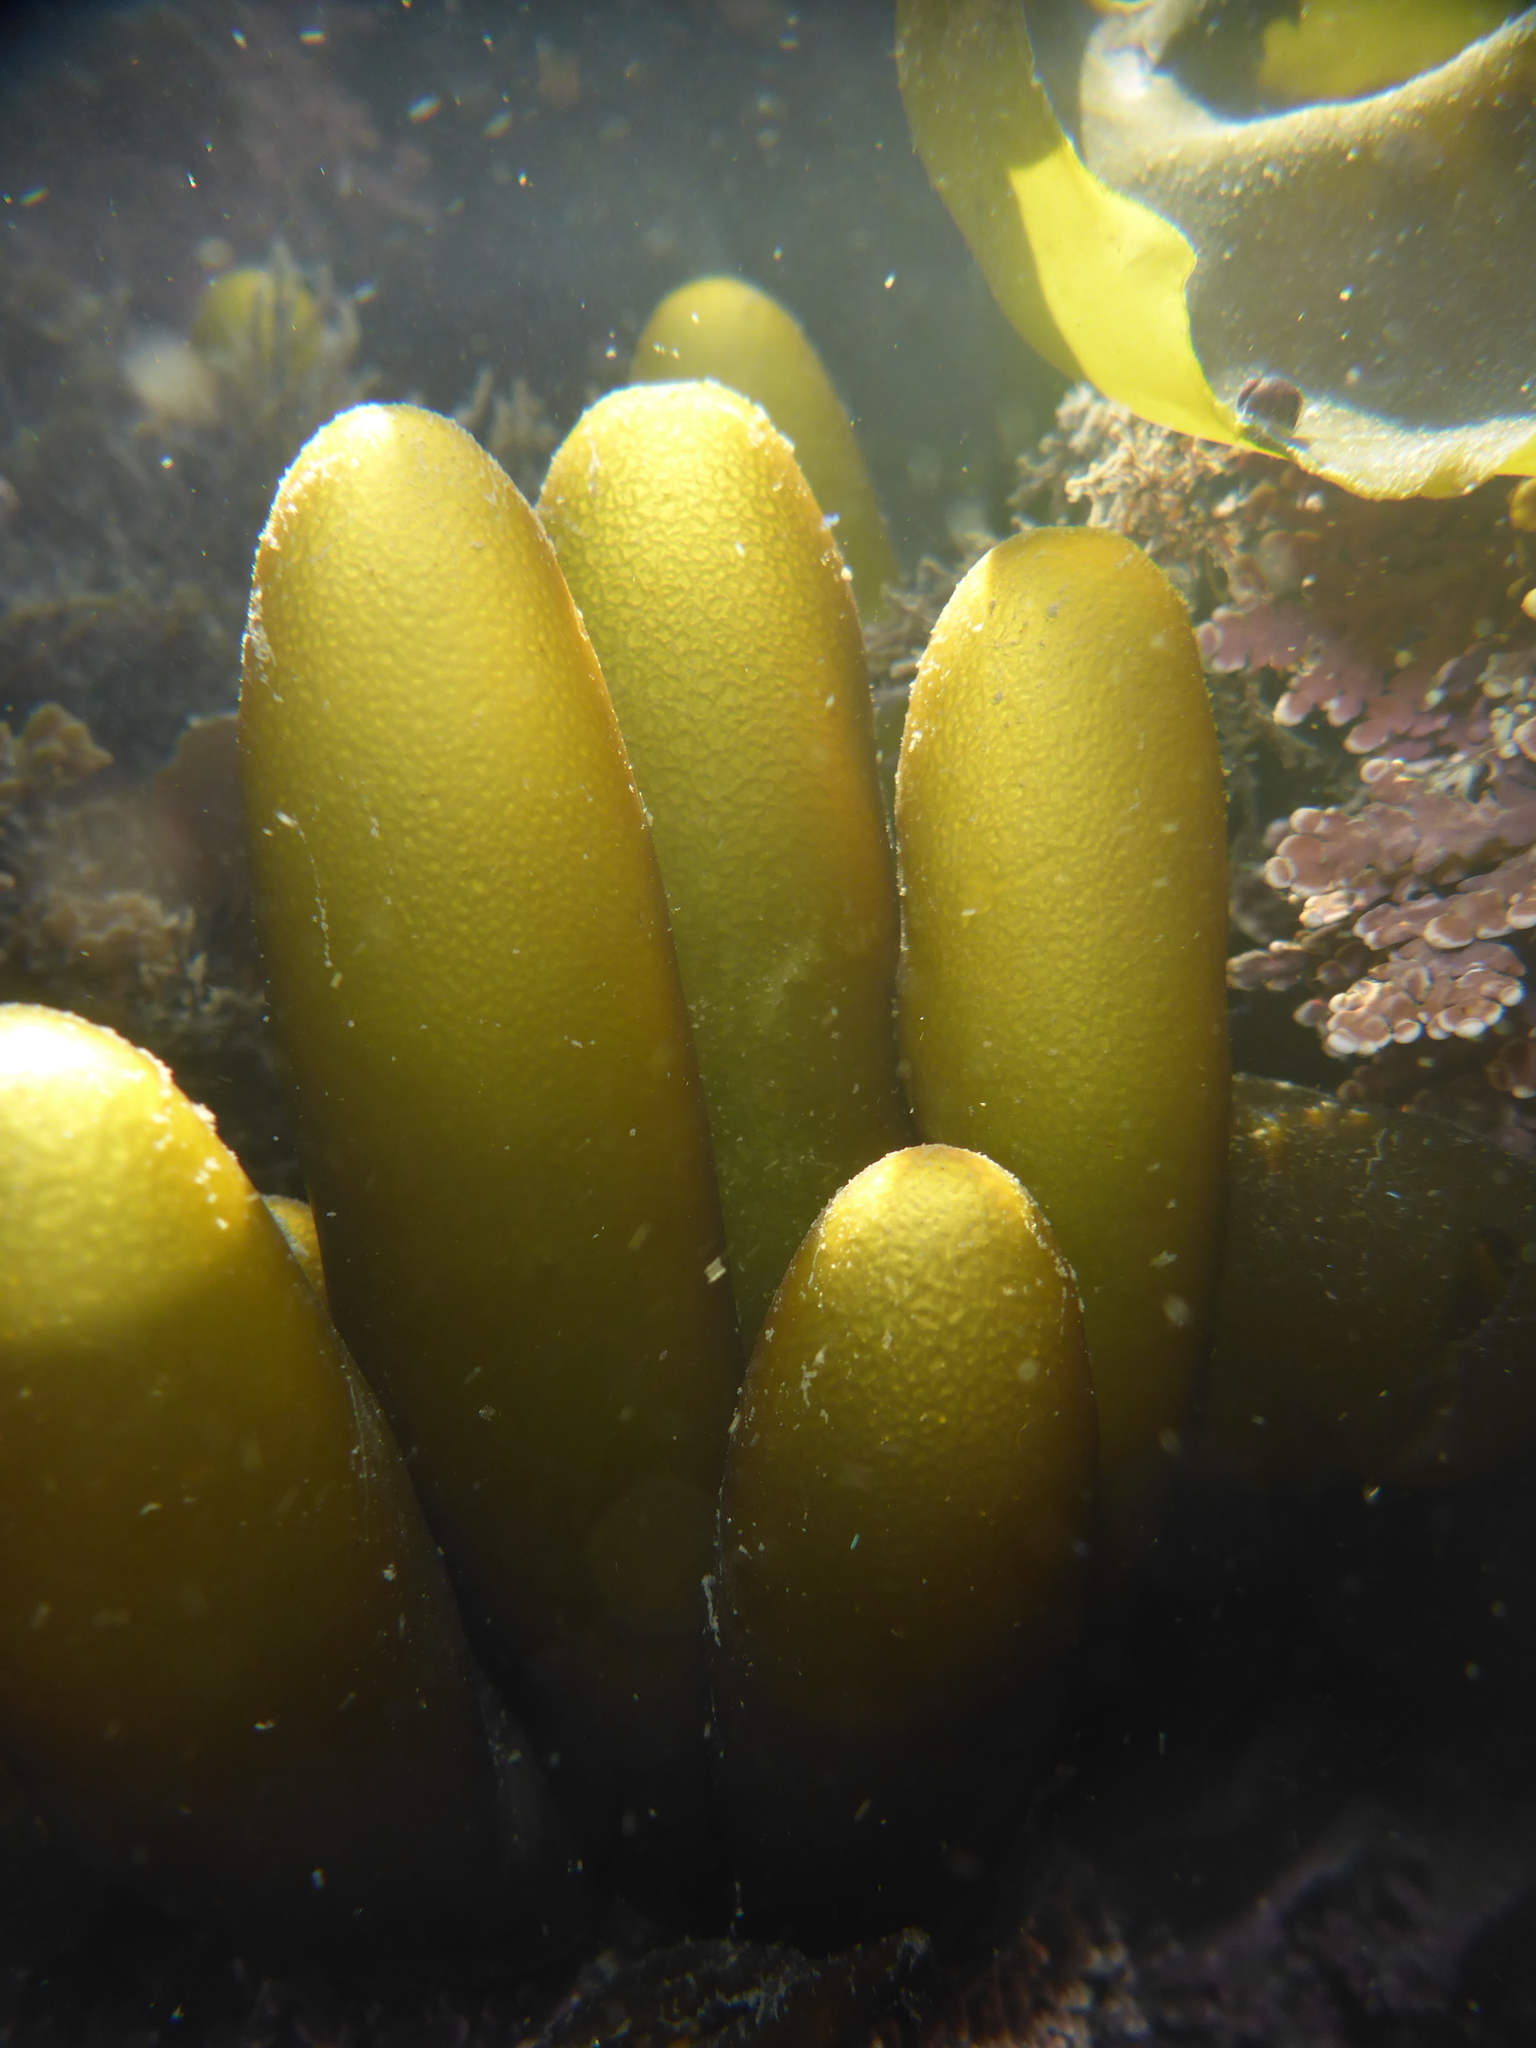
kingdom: Plantae
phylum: Rhodophyta
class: Florideophyceae
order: Palmariales
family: Palmariaceae
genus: Halosaccion
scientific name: Halosaccion glandiforme
